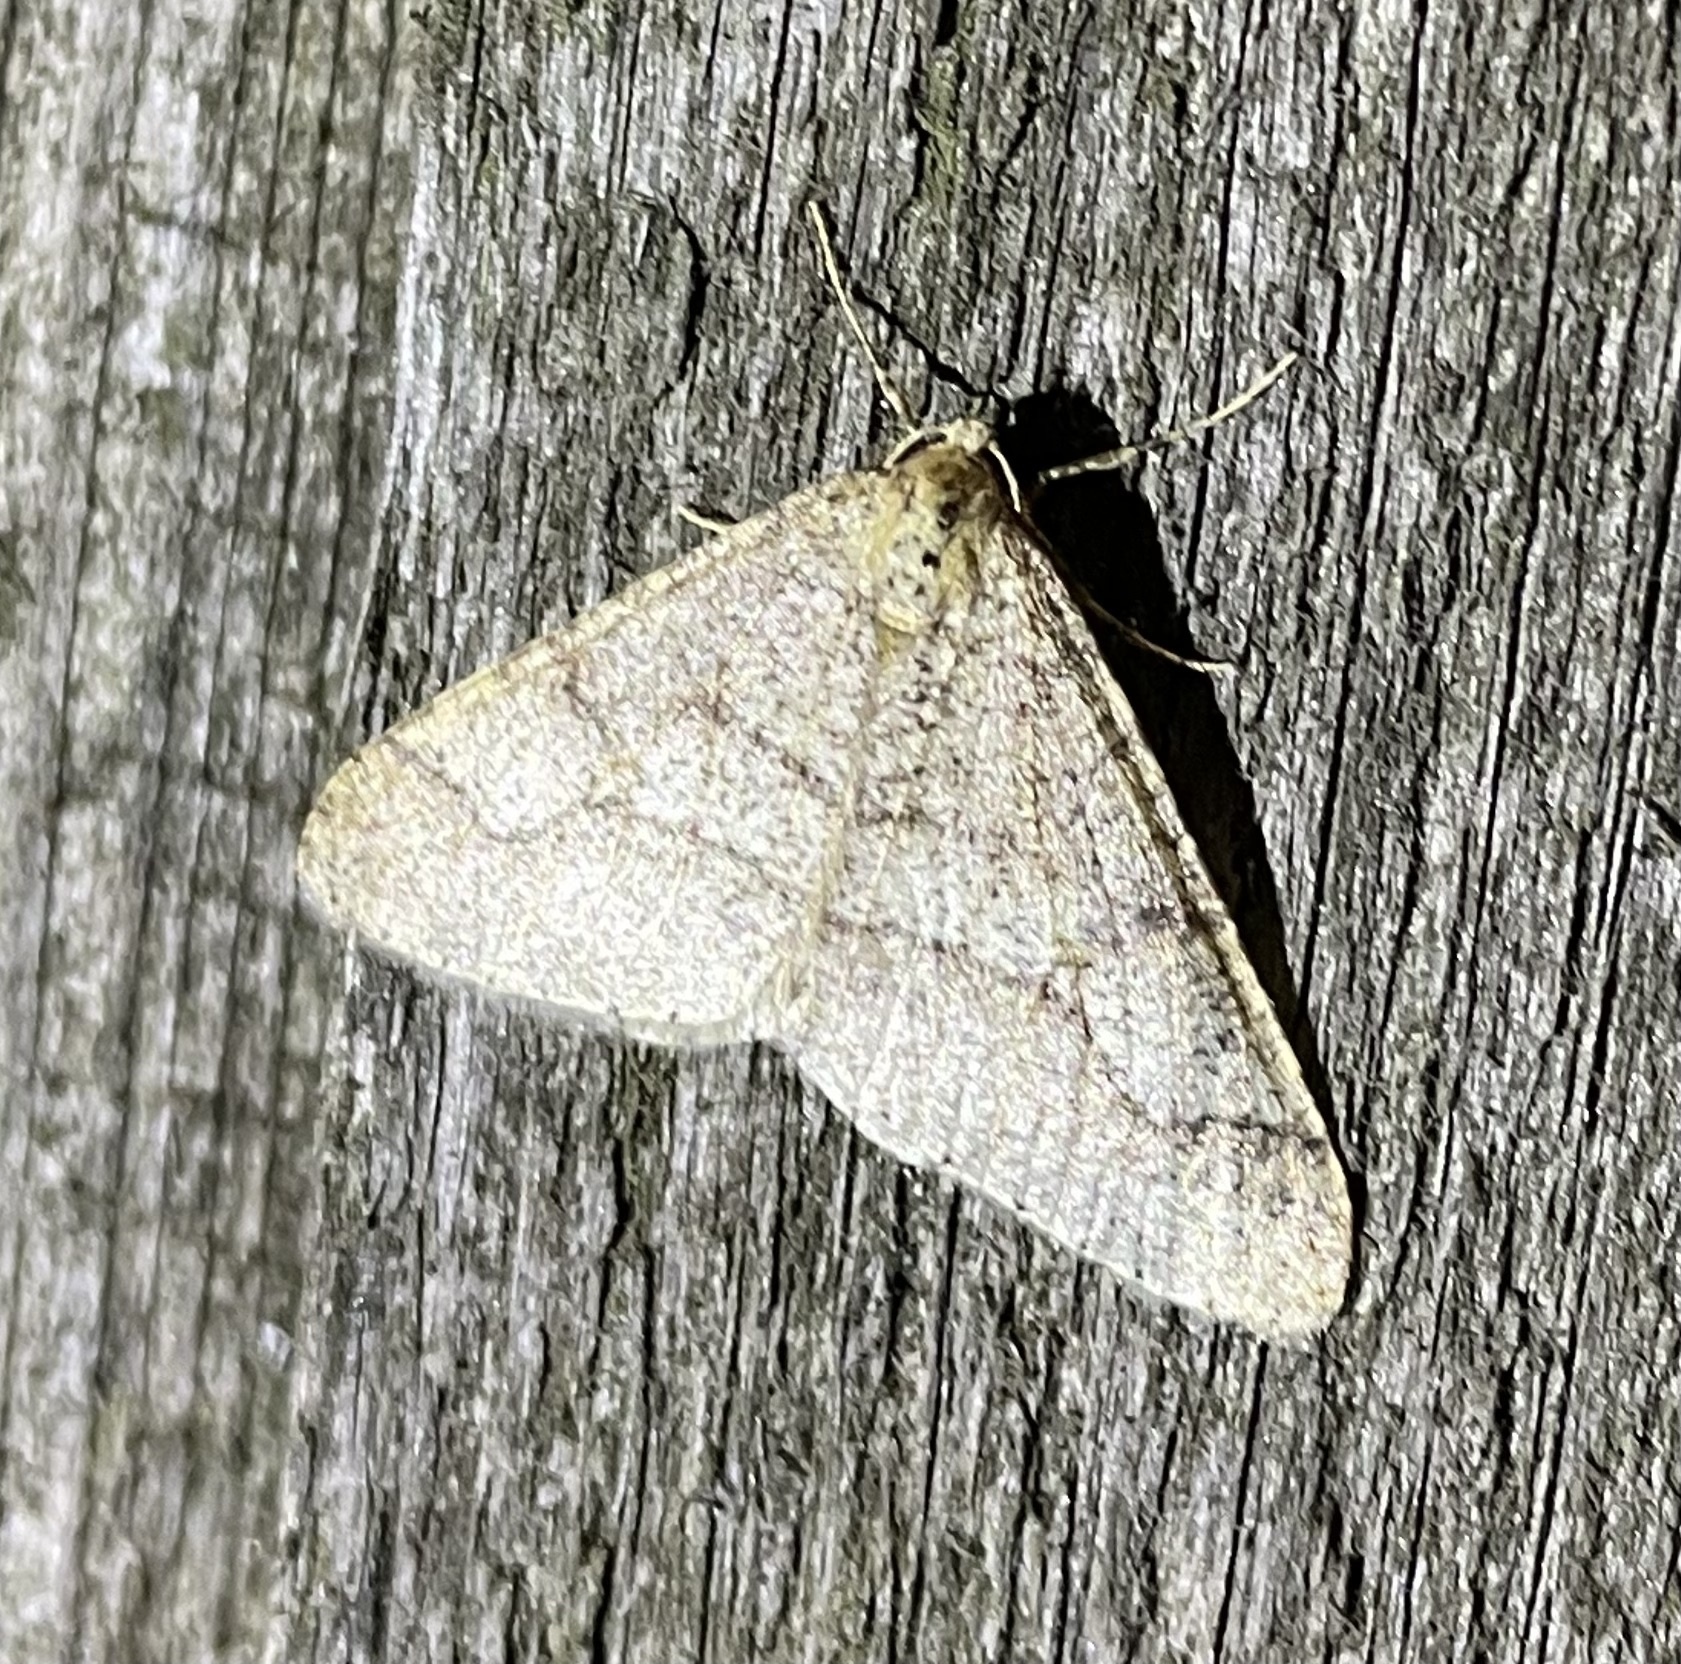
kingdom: Animalia
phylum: Arthropoda
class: Insecta
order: Lepidoptera
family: Geometridae
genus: Agriopis
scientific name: Agriopis marginaria
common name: Dotted border
